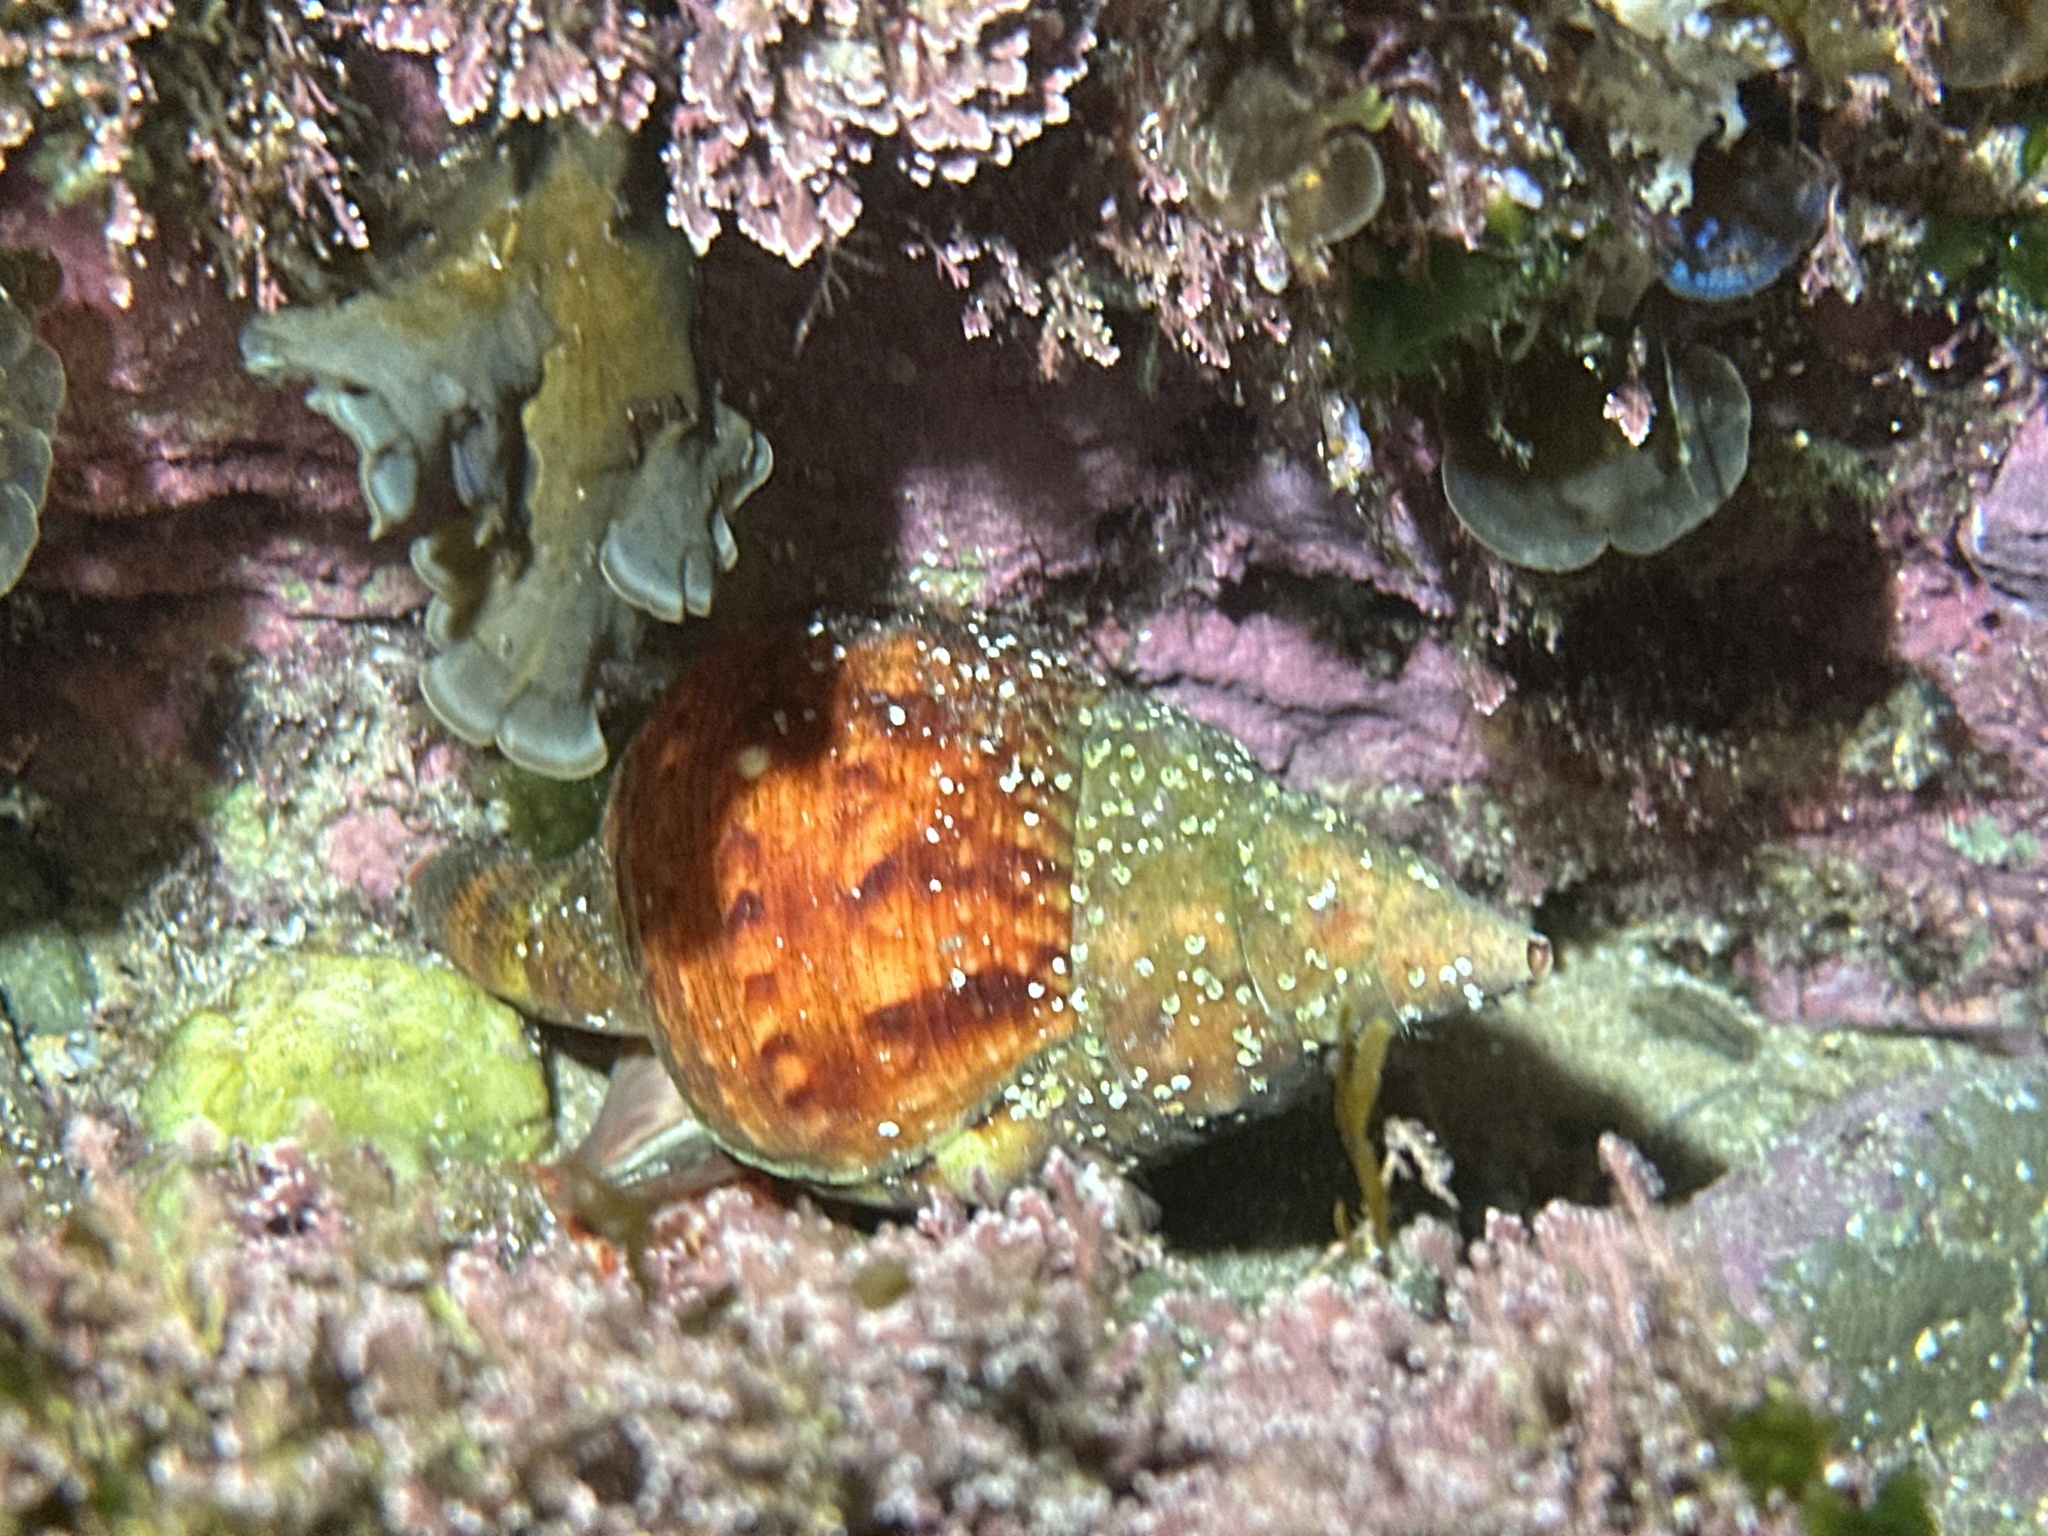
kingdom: Animalia
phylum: Mollusca
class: Gastropoda
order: Littorinimorpha
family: Charoniidae
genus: Charonia
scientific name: Charonia lampas
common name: Knobbed triton
